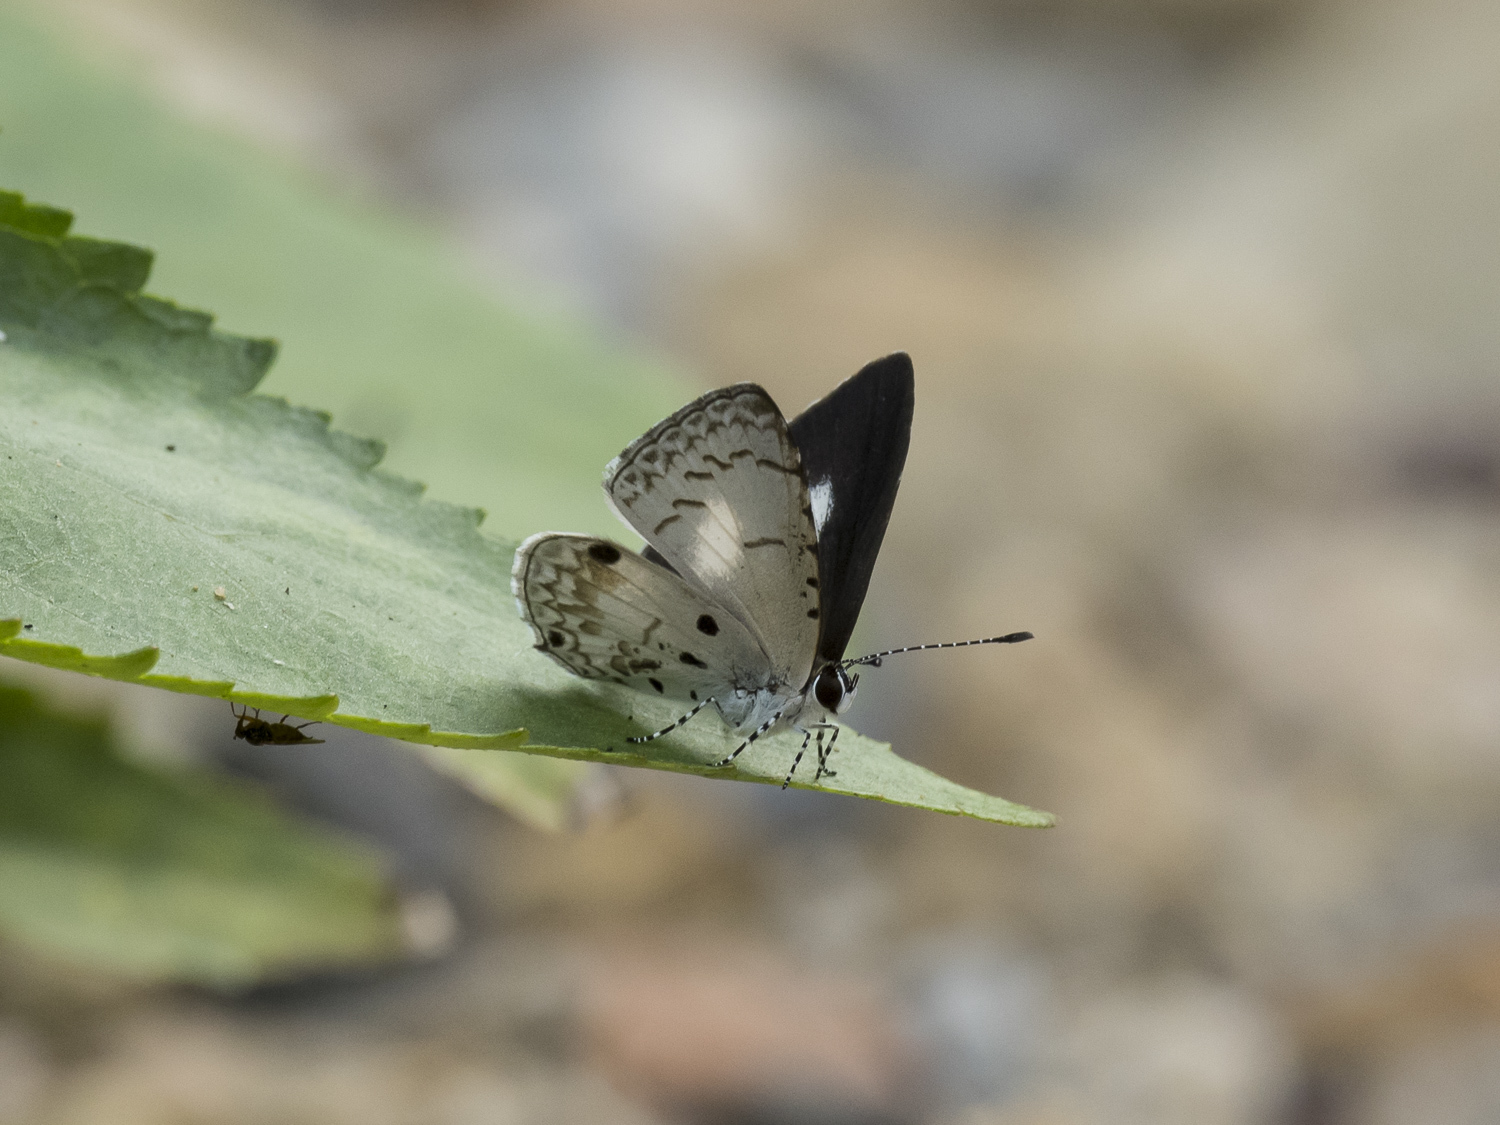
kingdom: Animalia
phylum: Arthropoda
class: Insecta
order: Lepidoptera
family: Lycaenidae
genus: Megisba
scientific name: Megisba malaya
